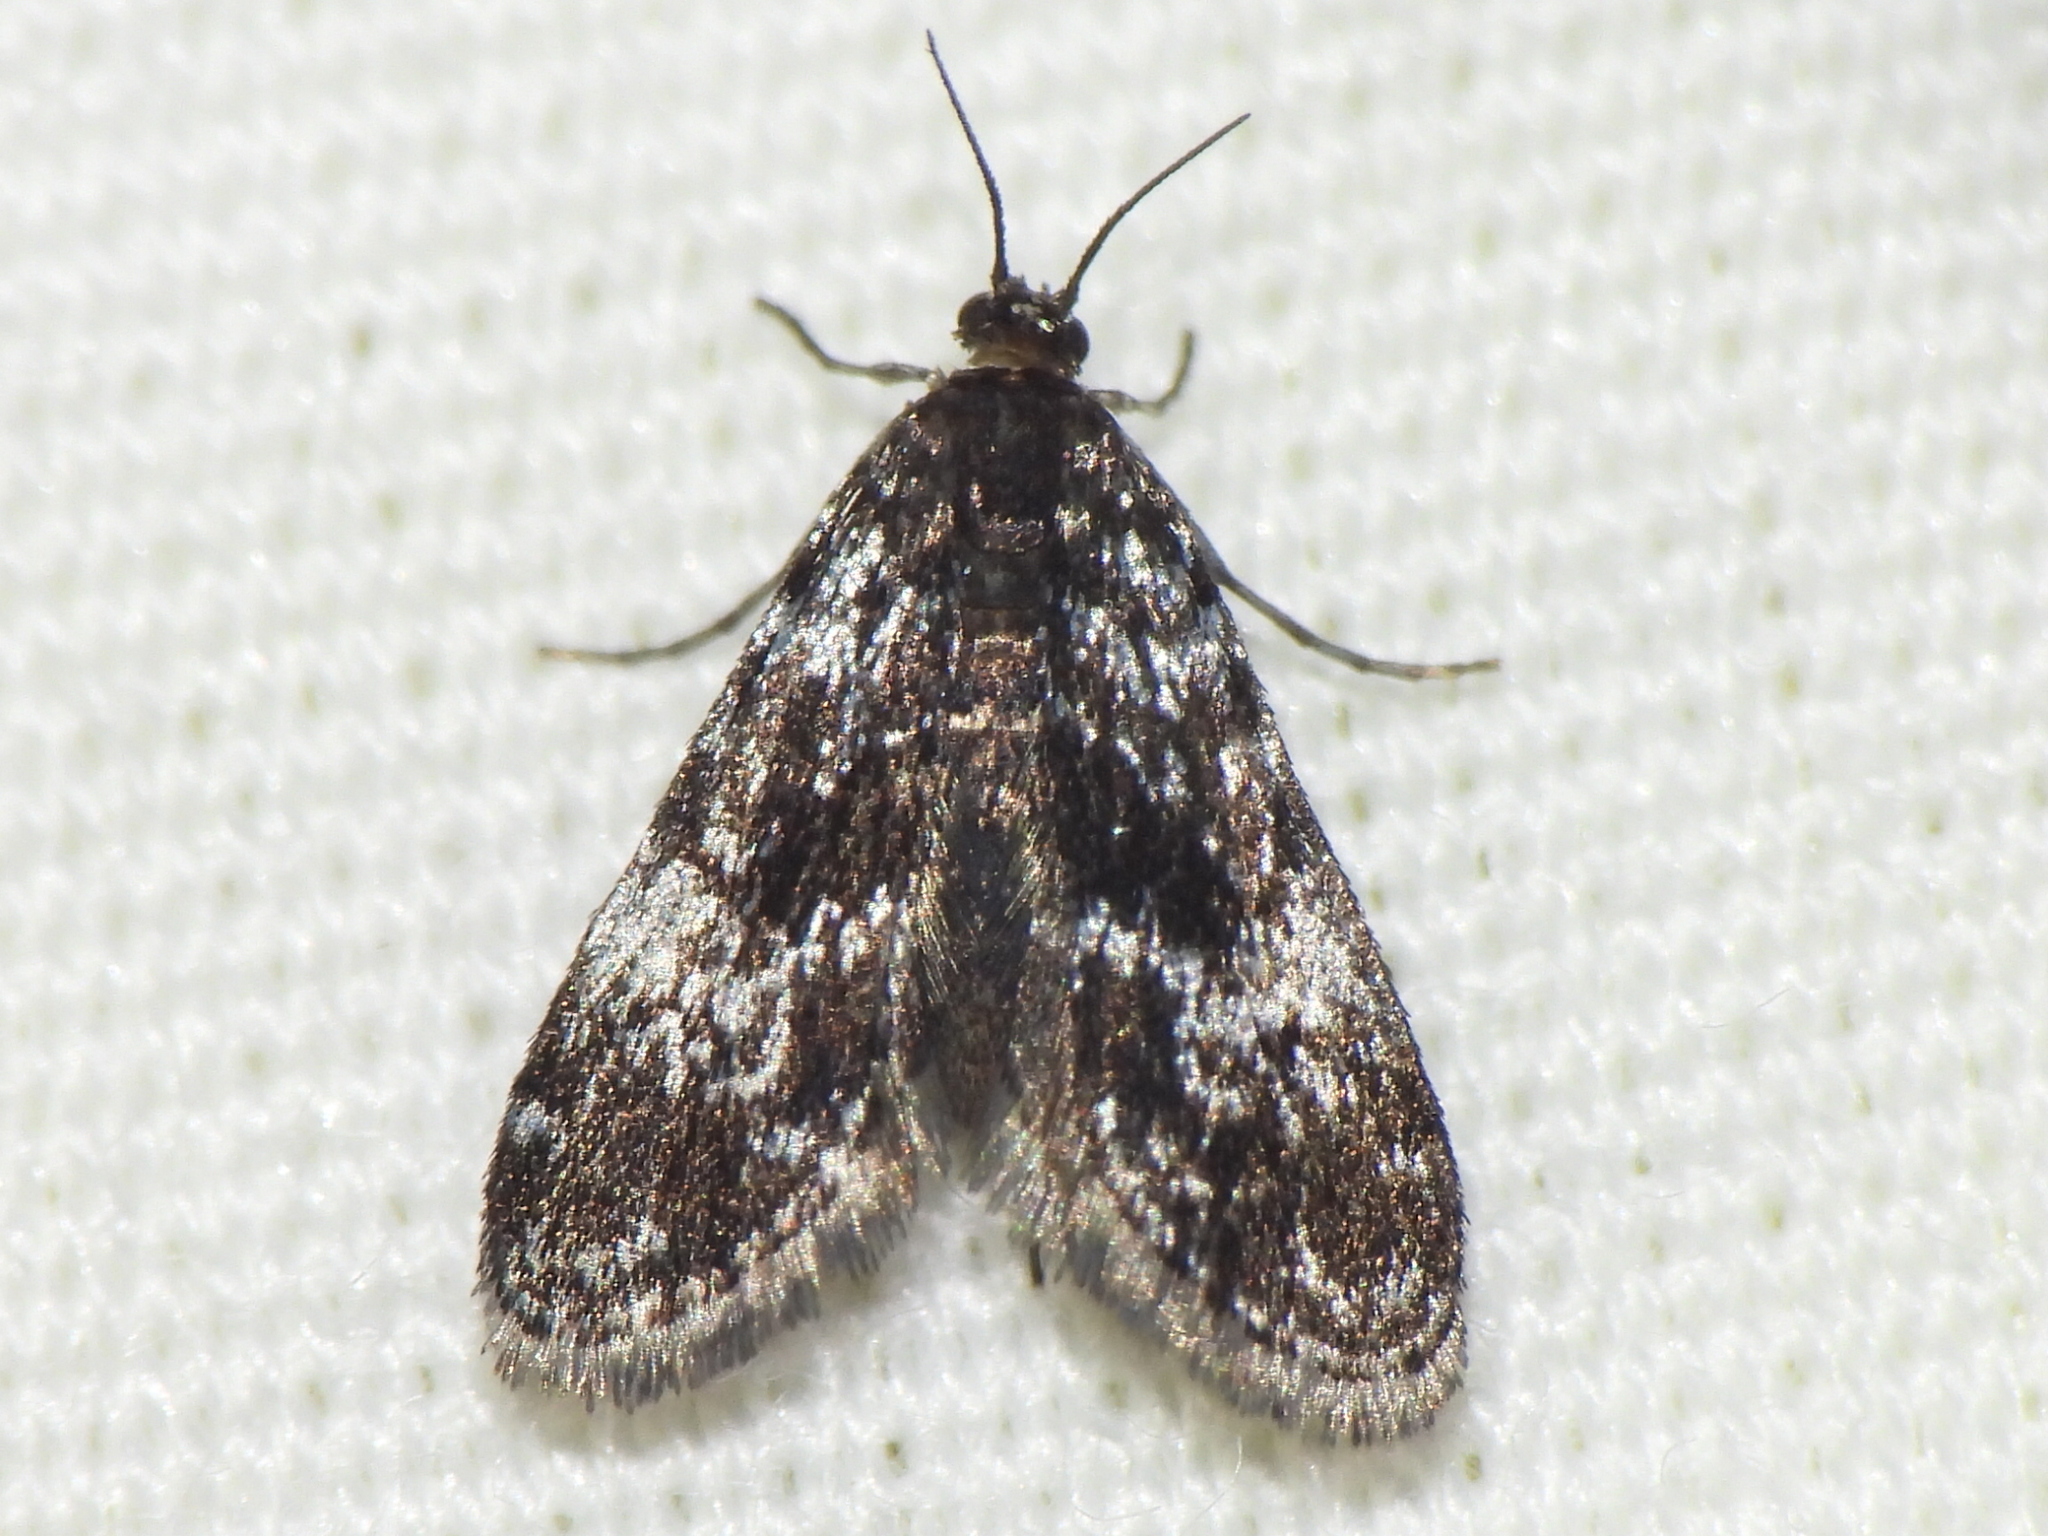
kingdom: Animalia
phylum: Arthropoda
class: Insecta
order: Lepidoptera
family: Crambidae
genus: Elophila
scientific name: Elophila tinealis
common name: Black duckweed moth
